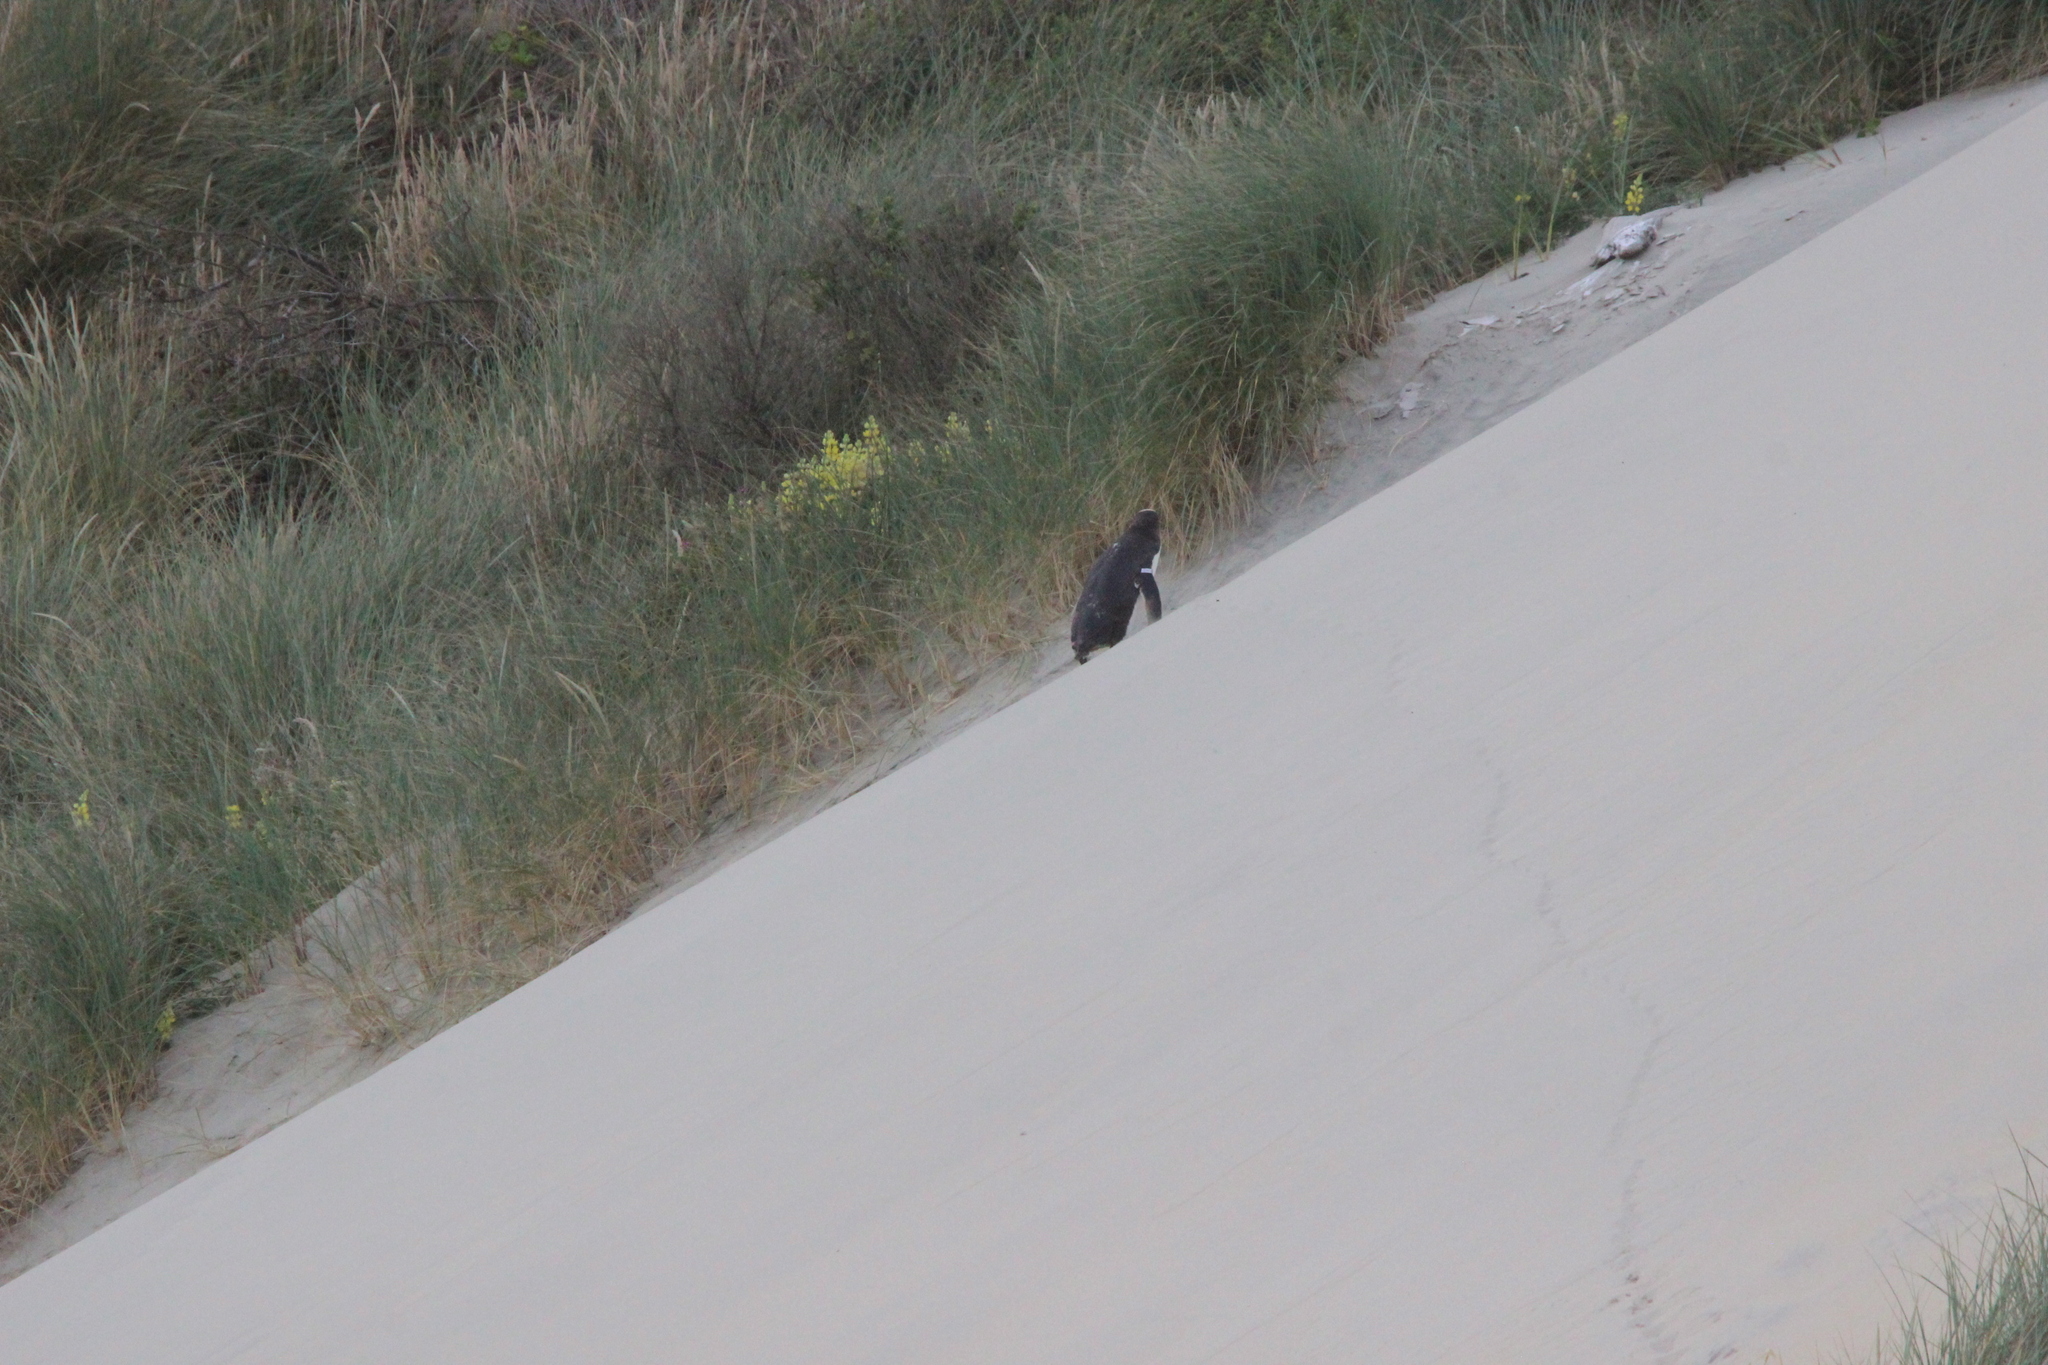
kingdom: Animalia
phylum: Chordata
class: Aves
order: Sphenisciformes
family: Spheniscidae
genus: Megadyptes
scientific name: Megadyptes antipodes
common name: Yellow-eyed penguin
